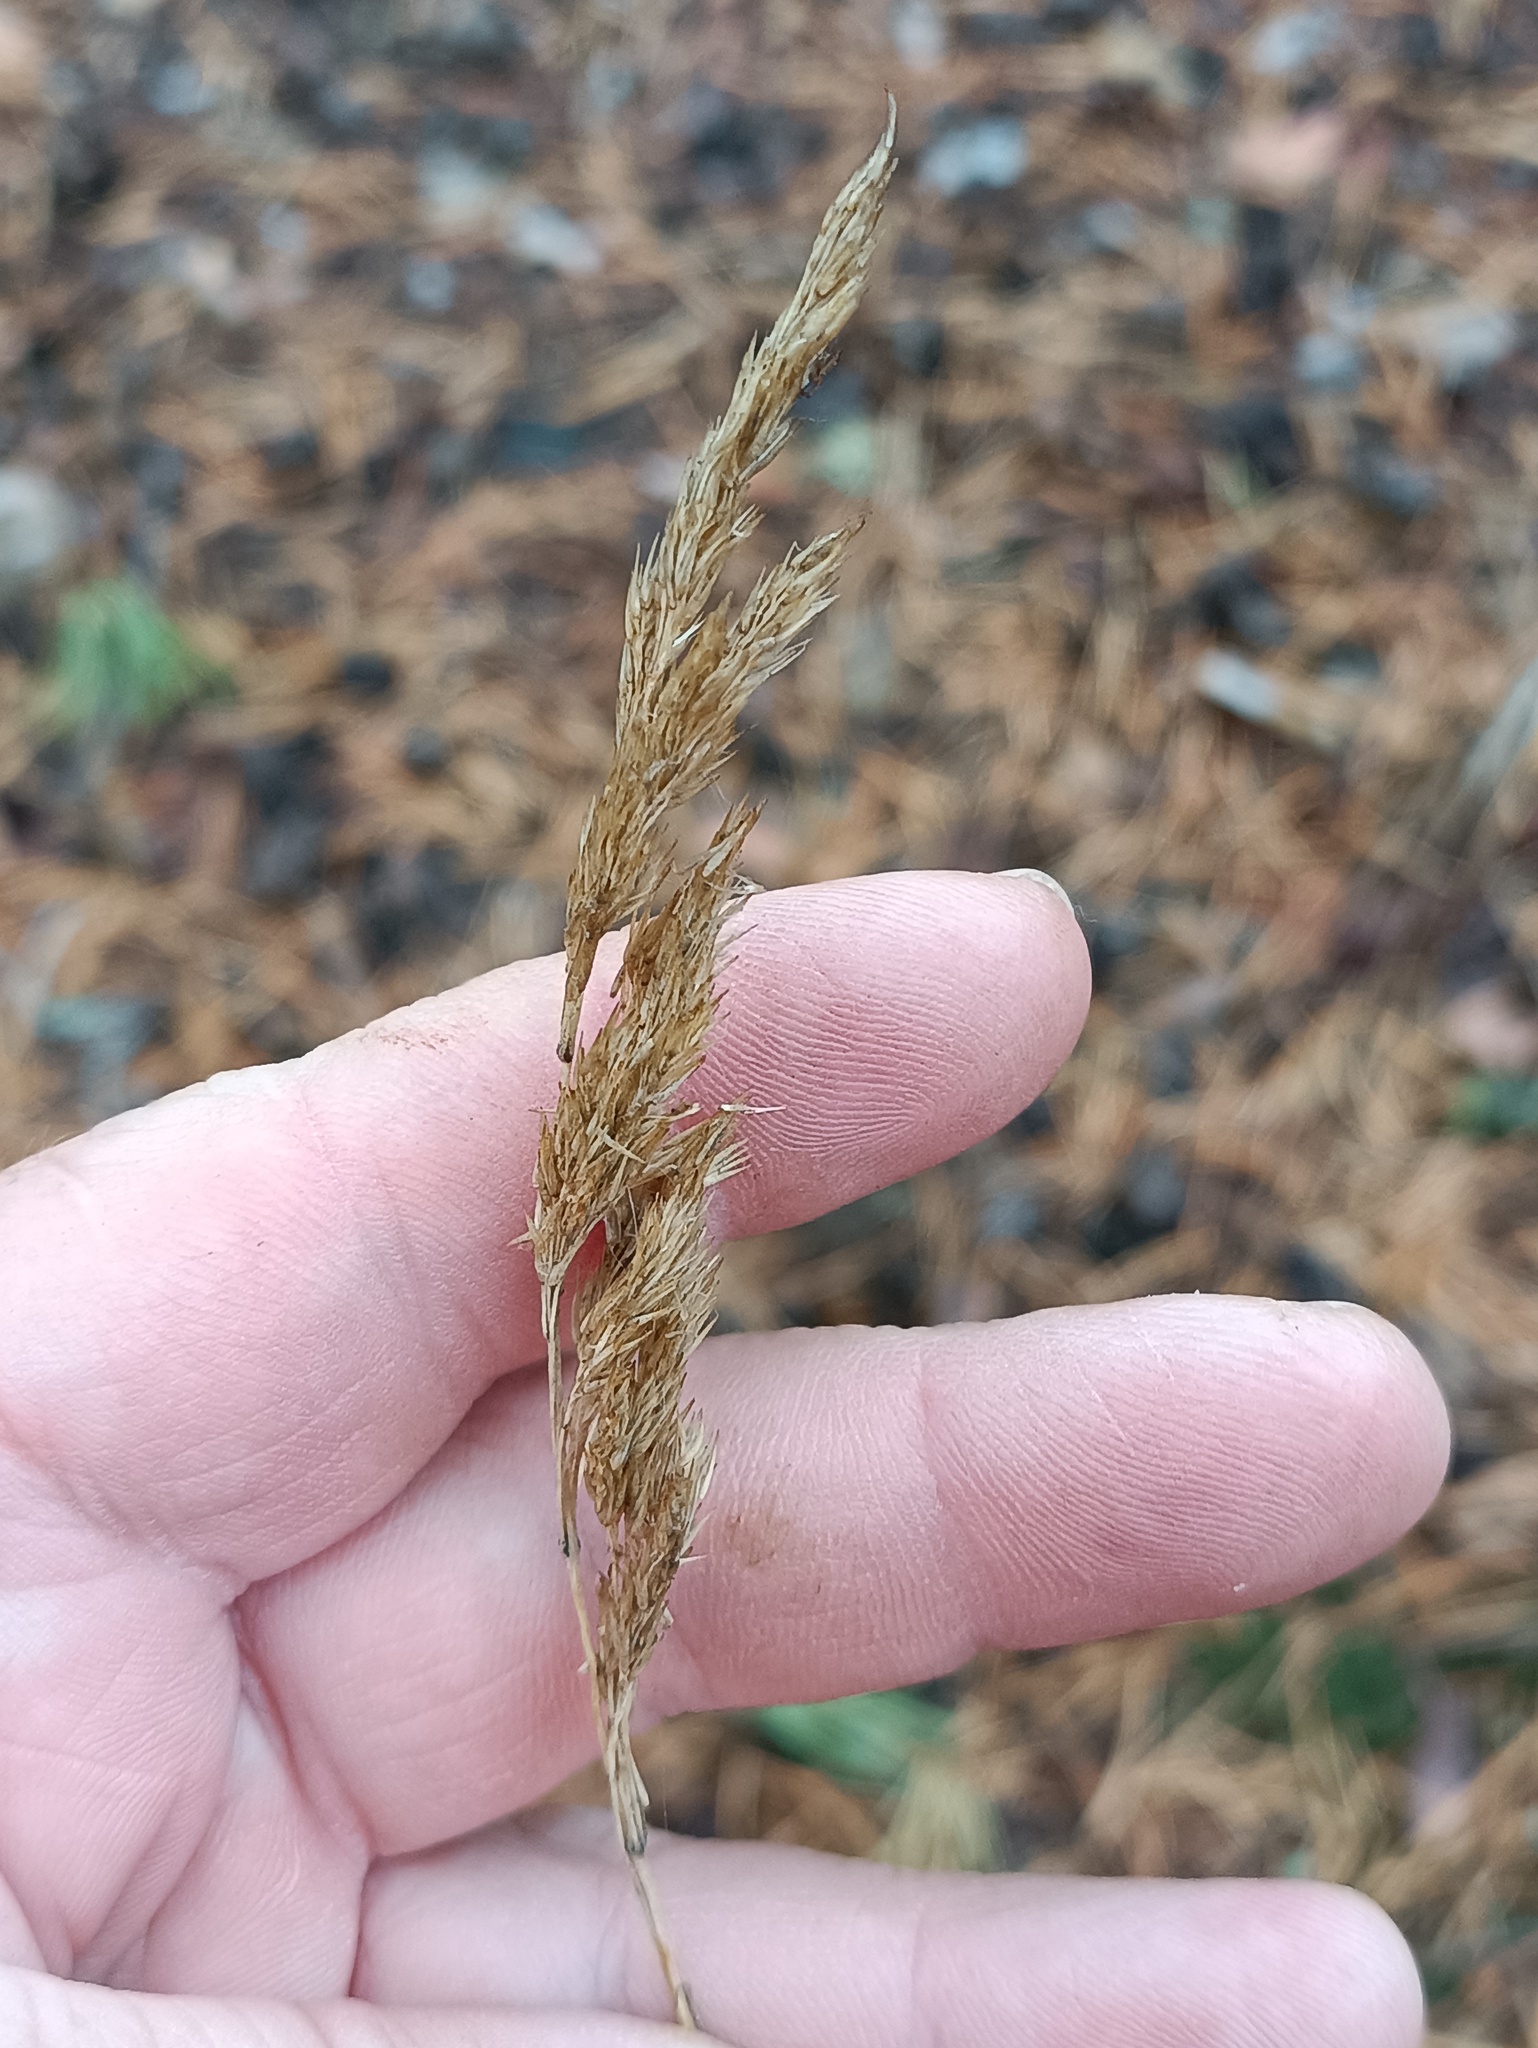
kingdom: Plantae
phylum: Tracheophyta
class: Liliopsida
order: Poales
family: Poaceae
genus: Calamagrostis
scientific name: Calamagrostis epigejos
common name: Wood small-reed
